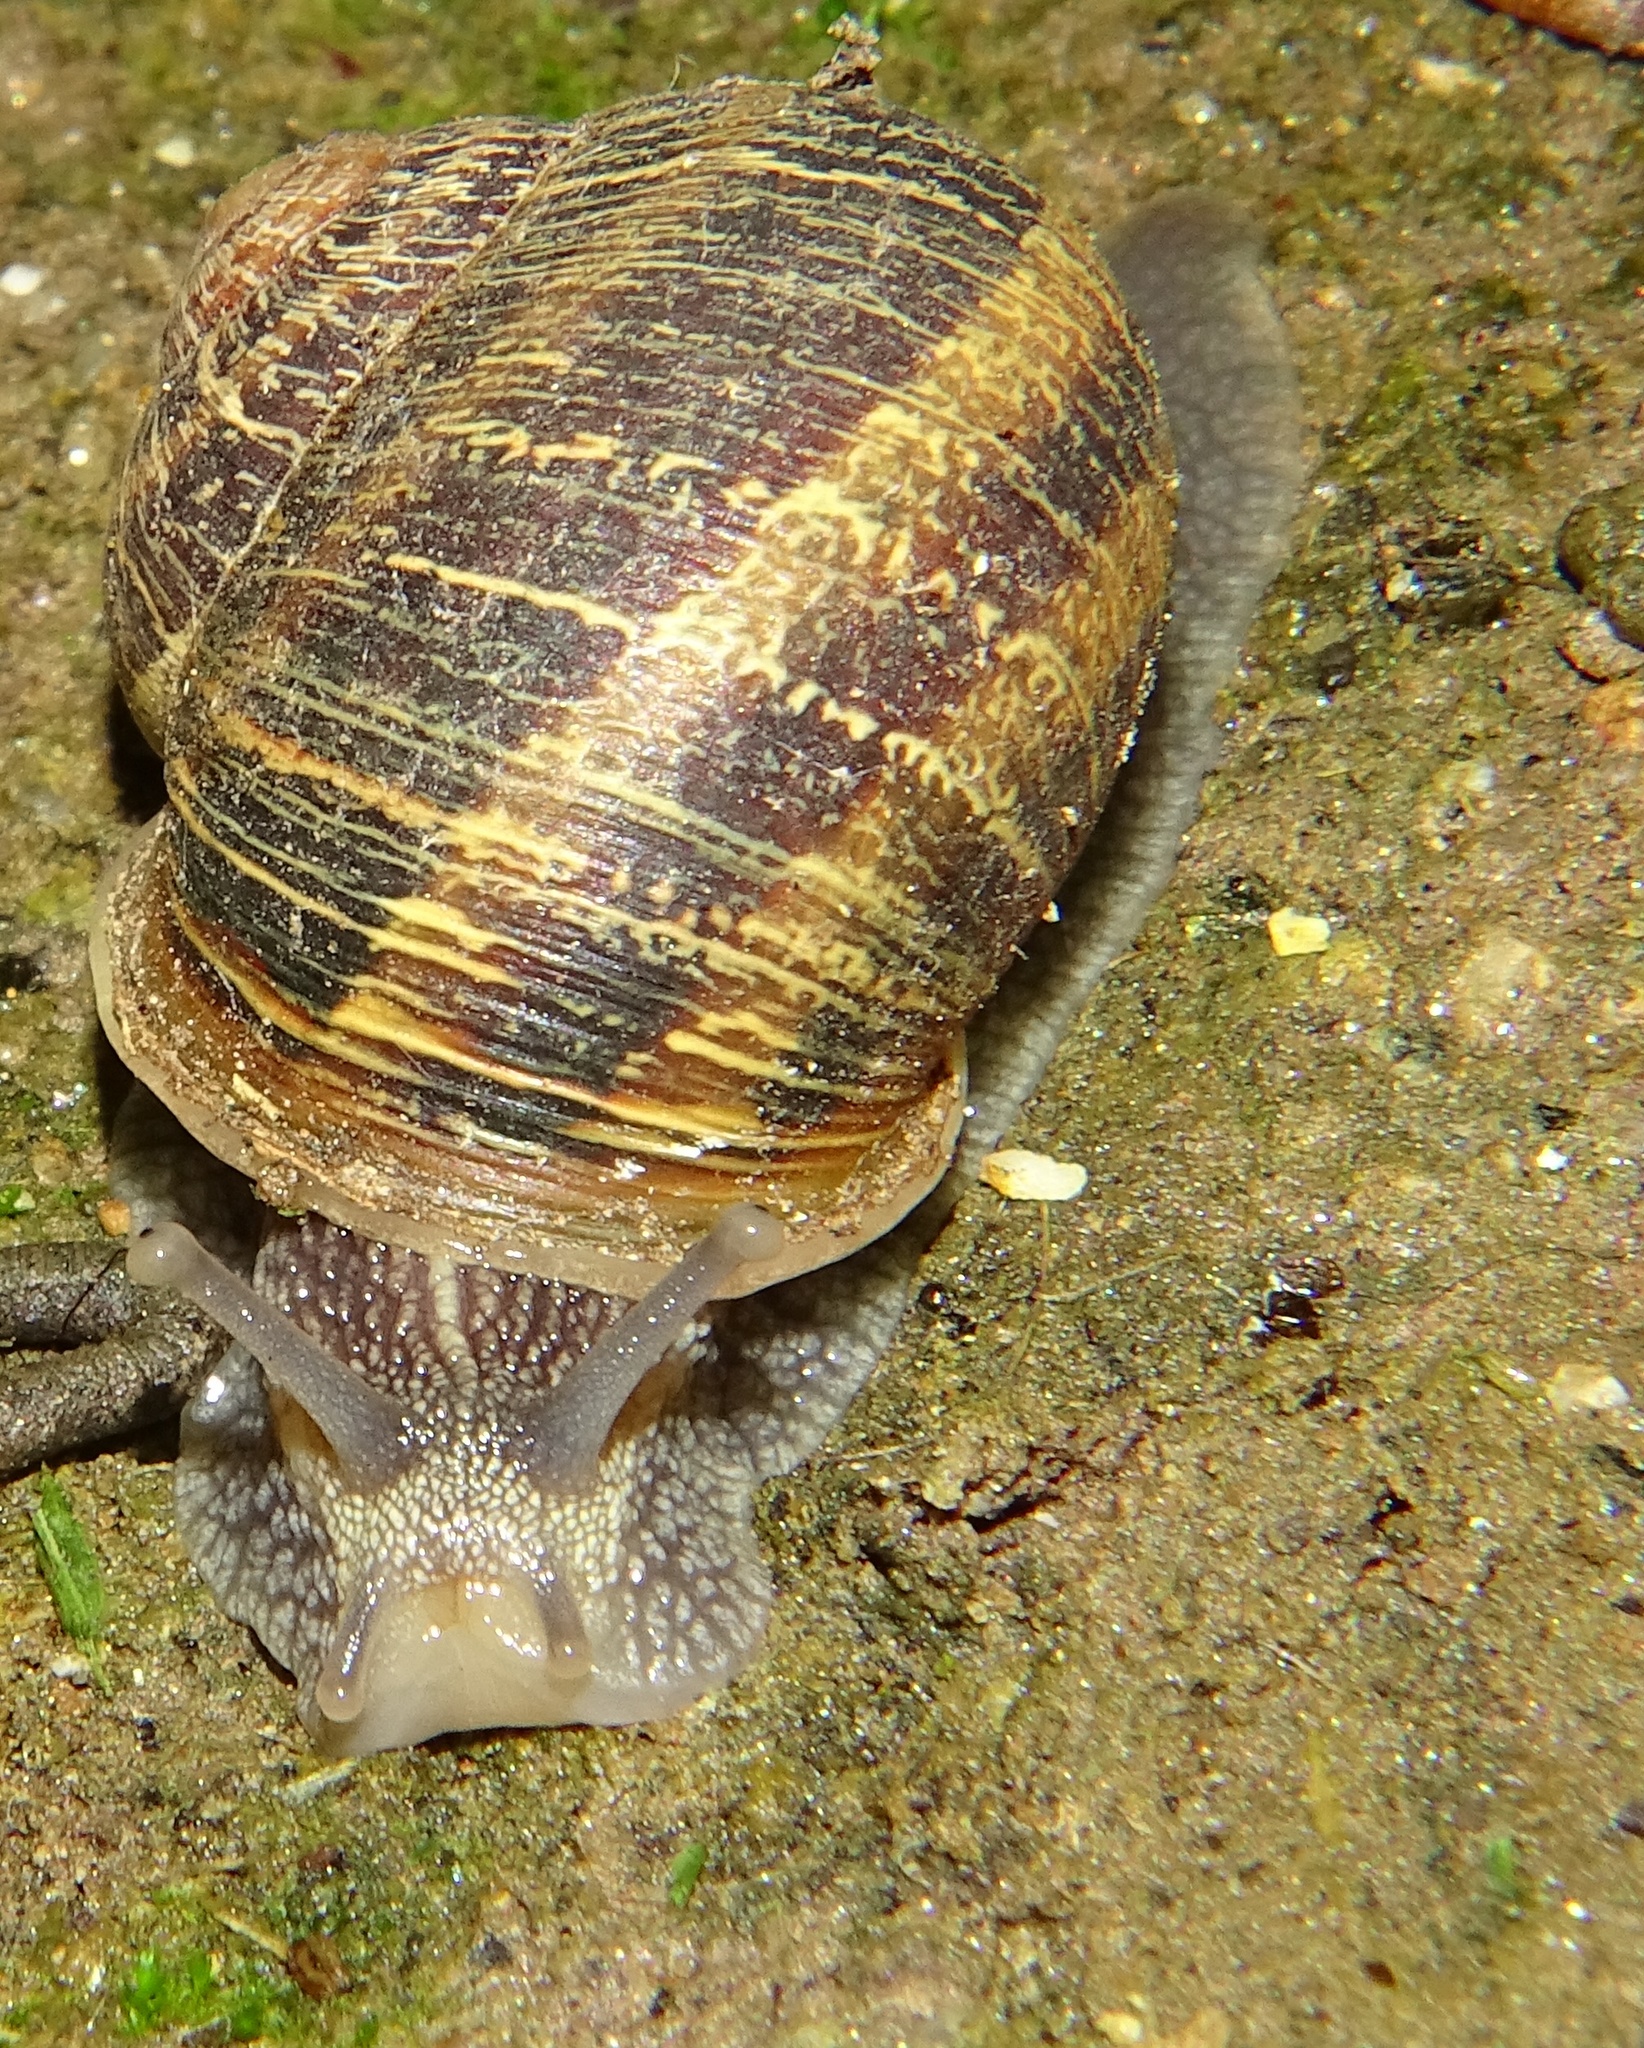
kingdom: Animalia
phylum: Mollusca
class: Gastropoda
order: Stylommatophora
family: Helicidae
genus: Cornu
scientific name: Cornu aspersum
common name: Brown garden snail
